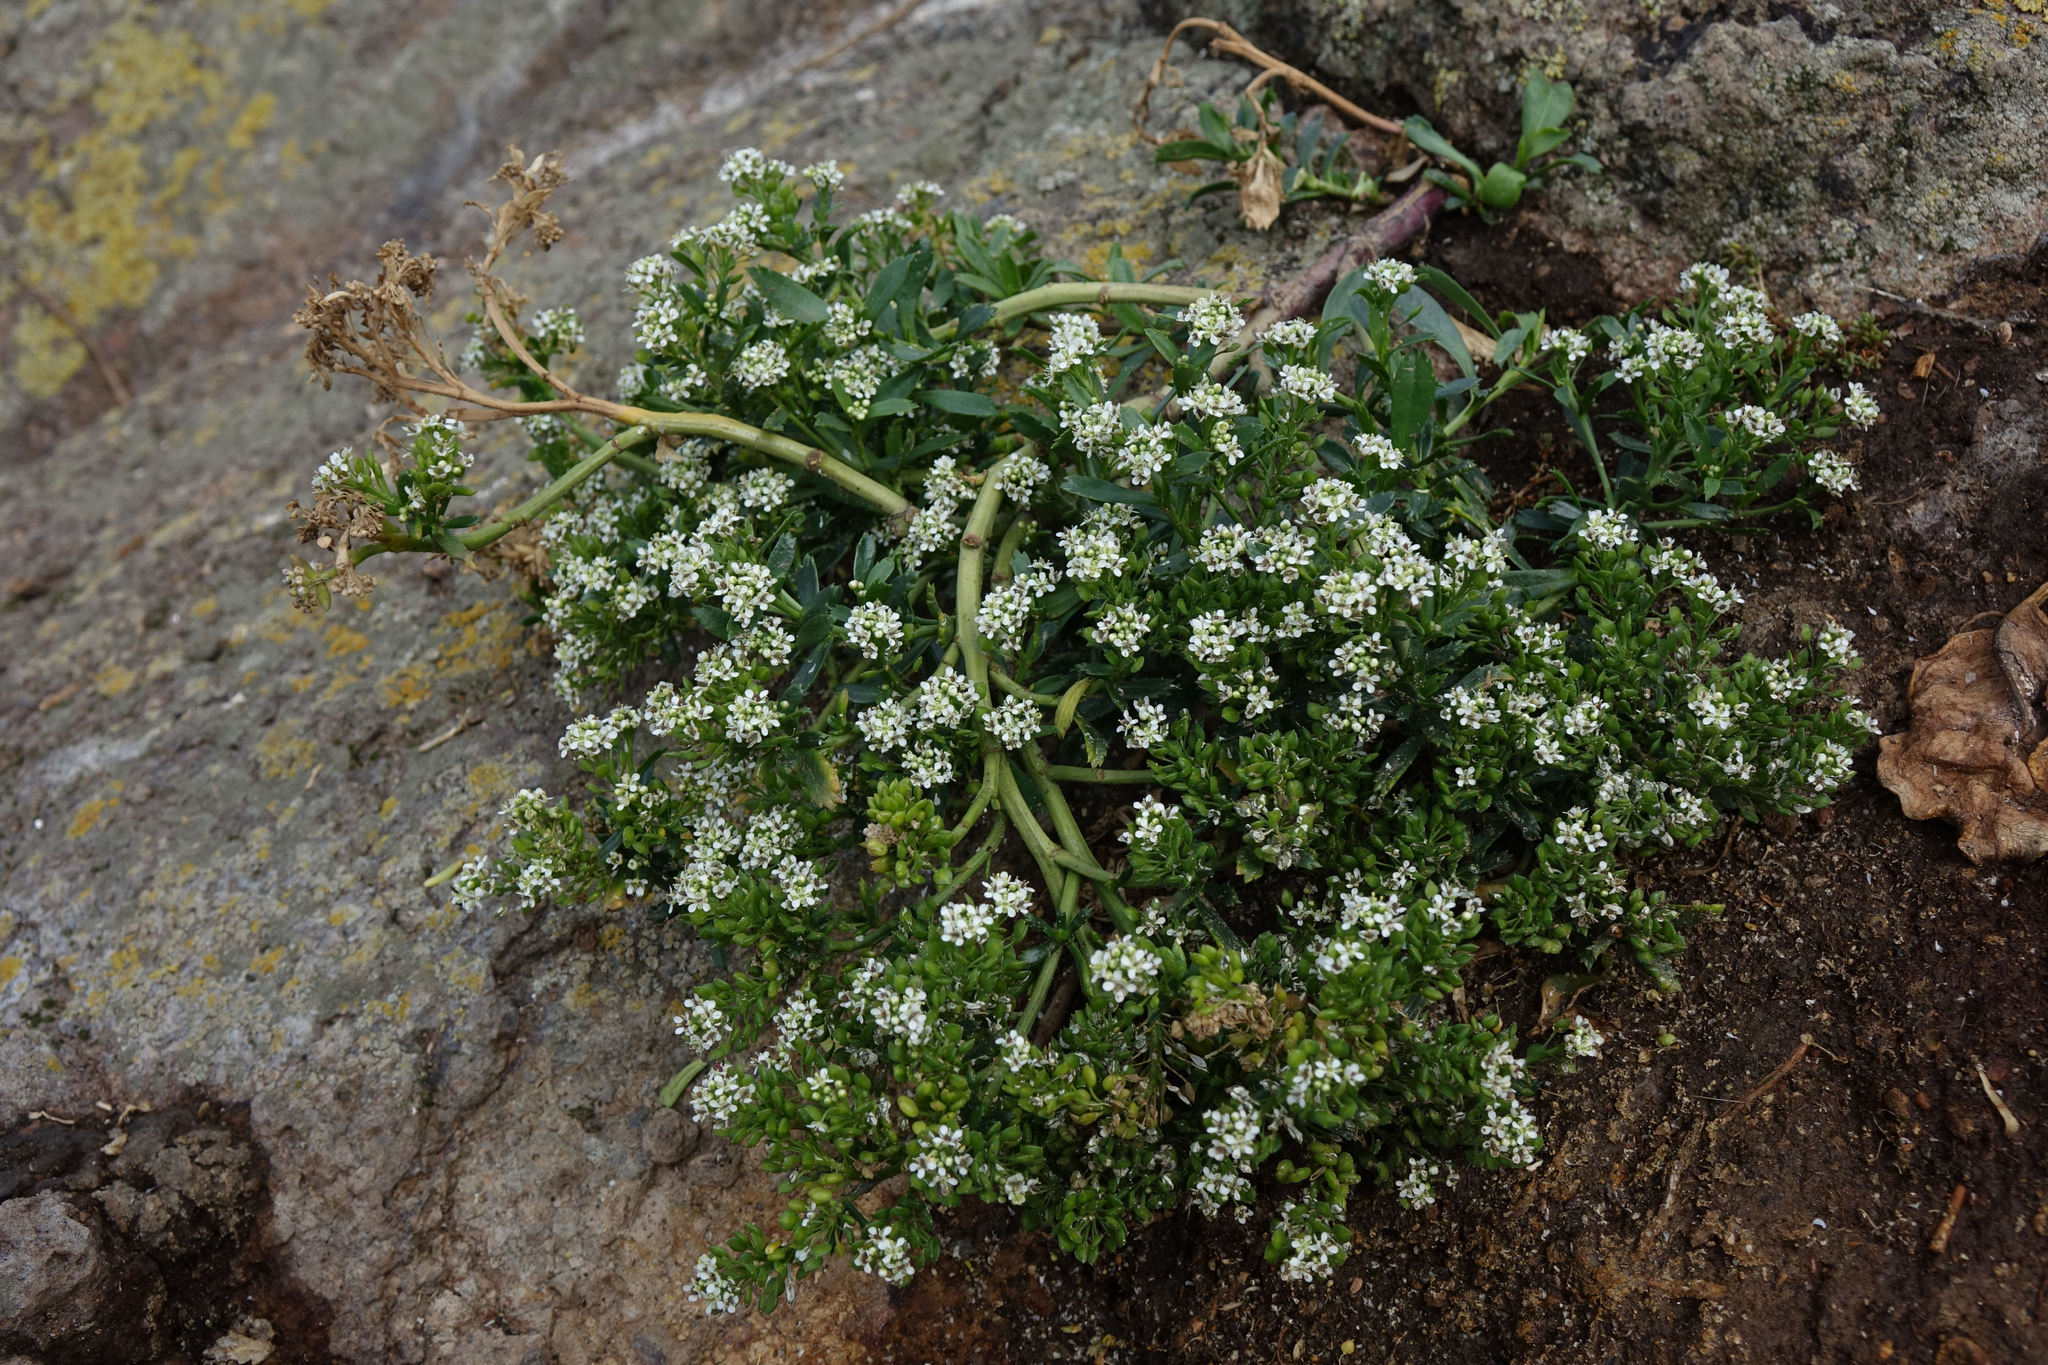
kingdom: Plantae
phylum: Tracheophyta
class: Magnoliopsida
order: Brassicales
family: Brassicaceae
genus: Lepidium
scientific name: Lepidium juvencum
